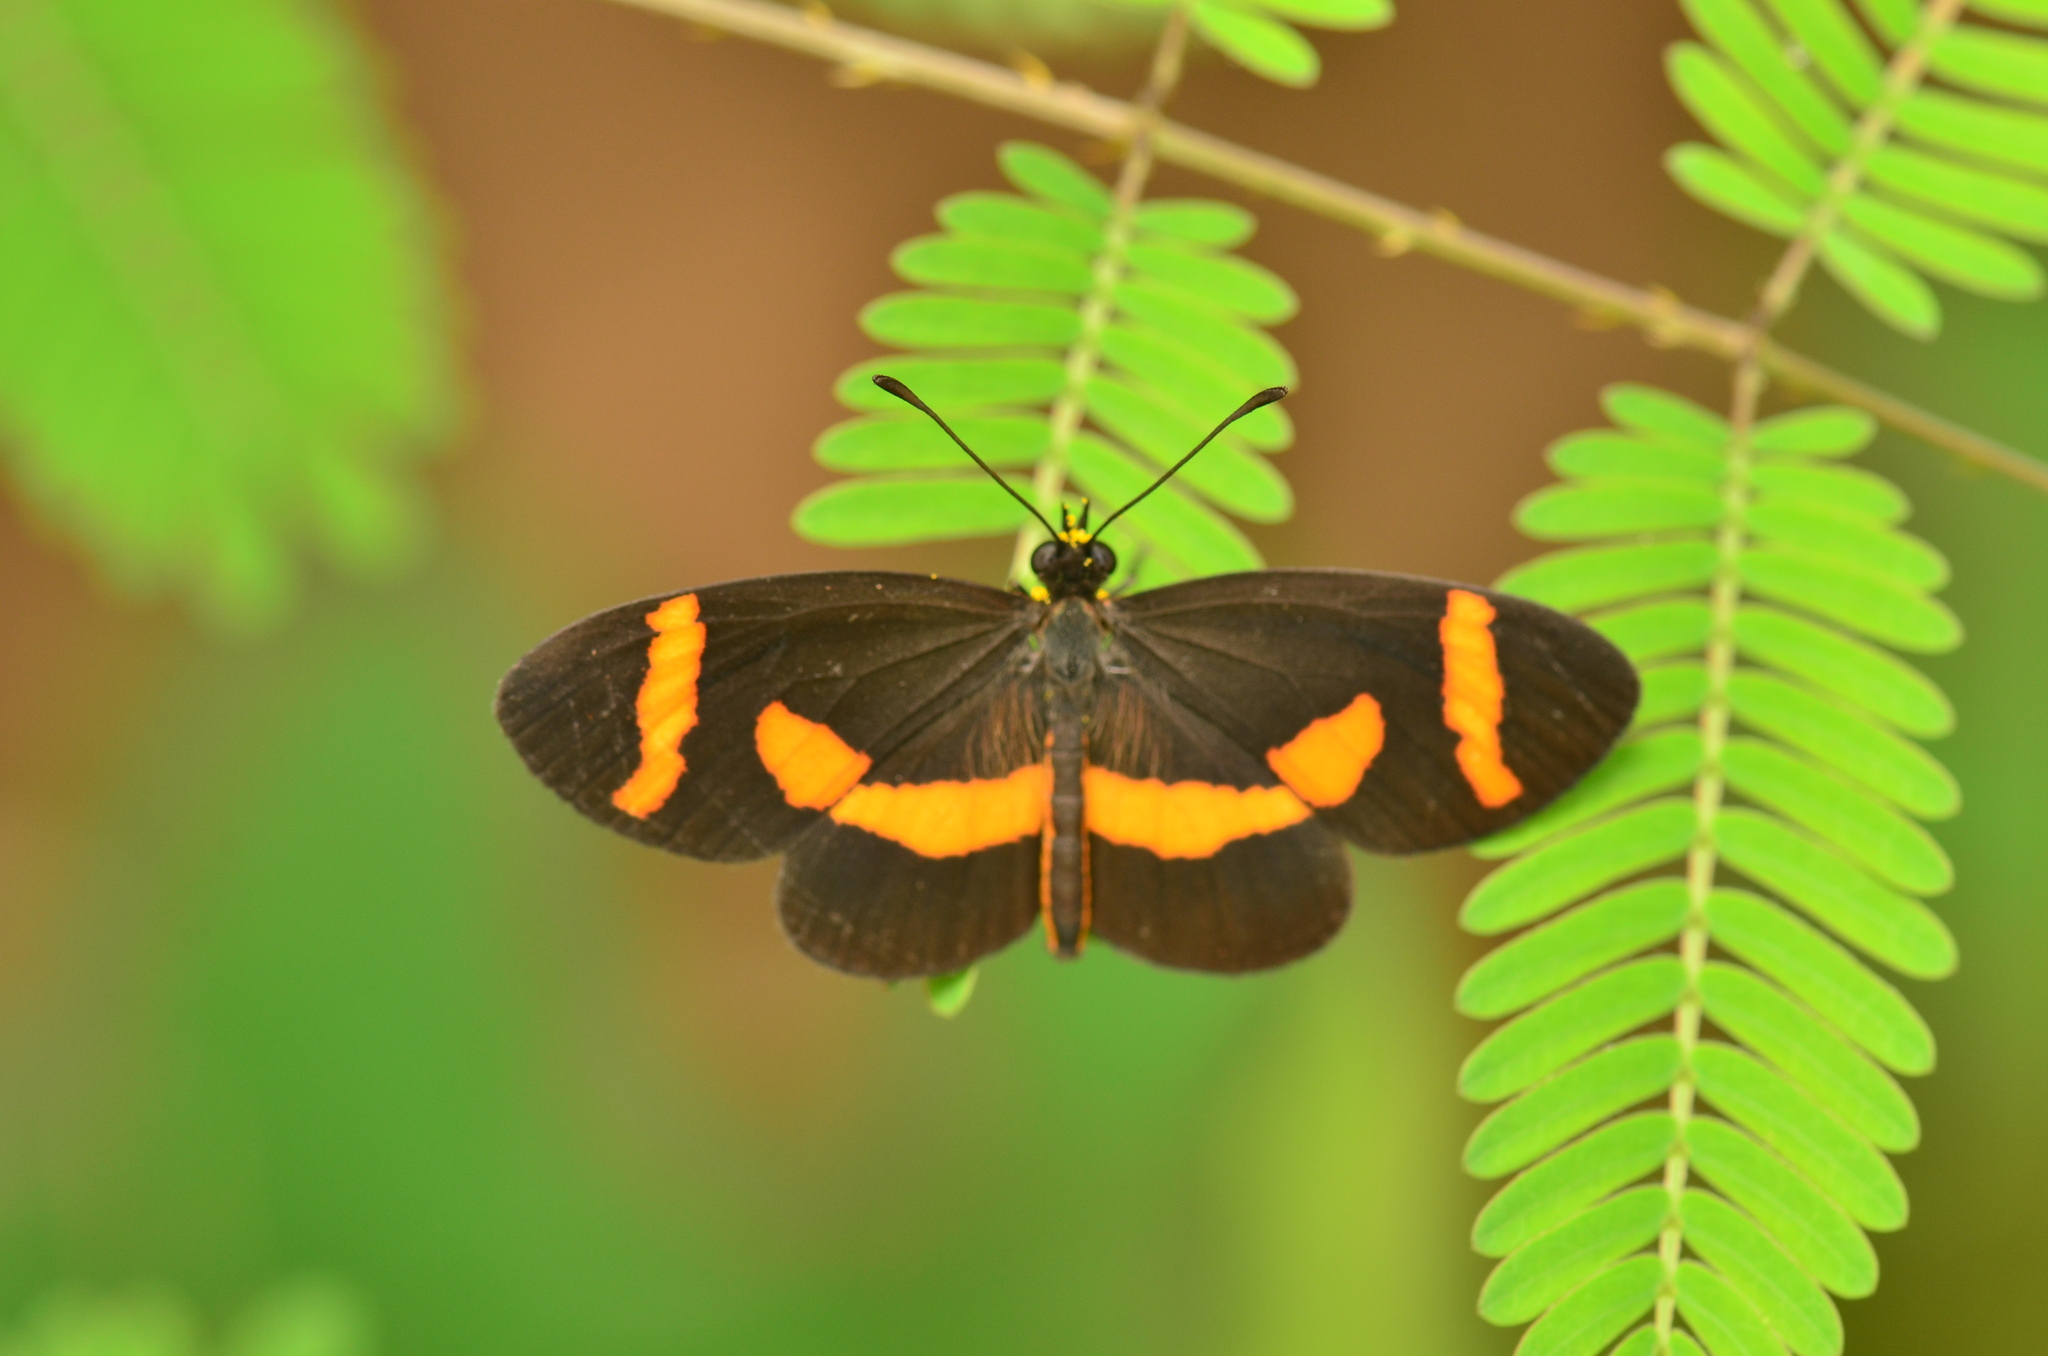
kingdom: Animalia
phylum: Arthropoda
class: Insecta
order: Lepidoptera
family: Nymphalidae
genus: Microtia
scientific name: Microtia elva
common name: Elf
